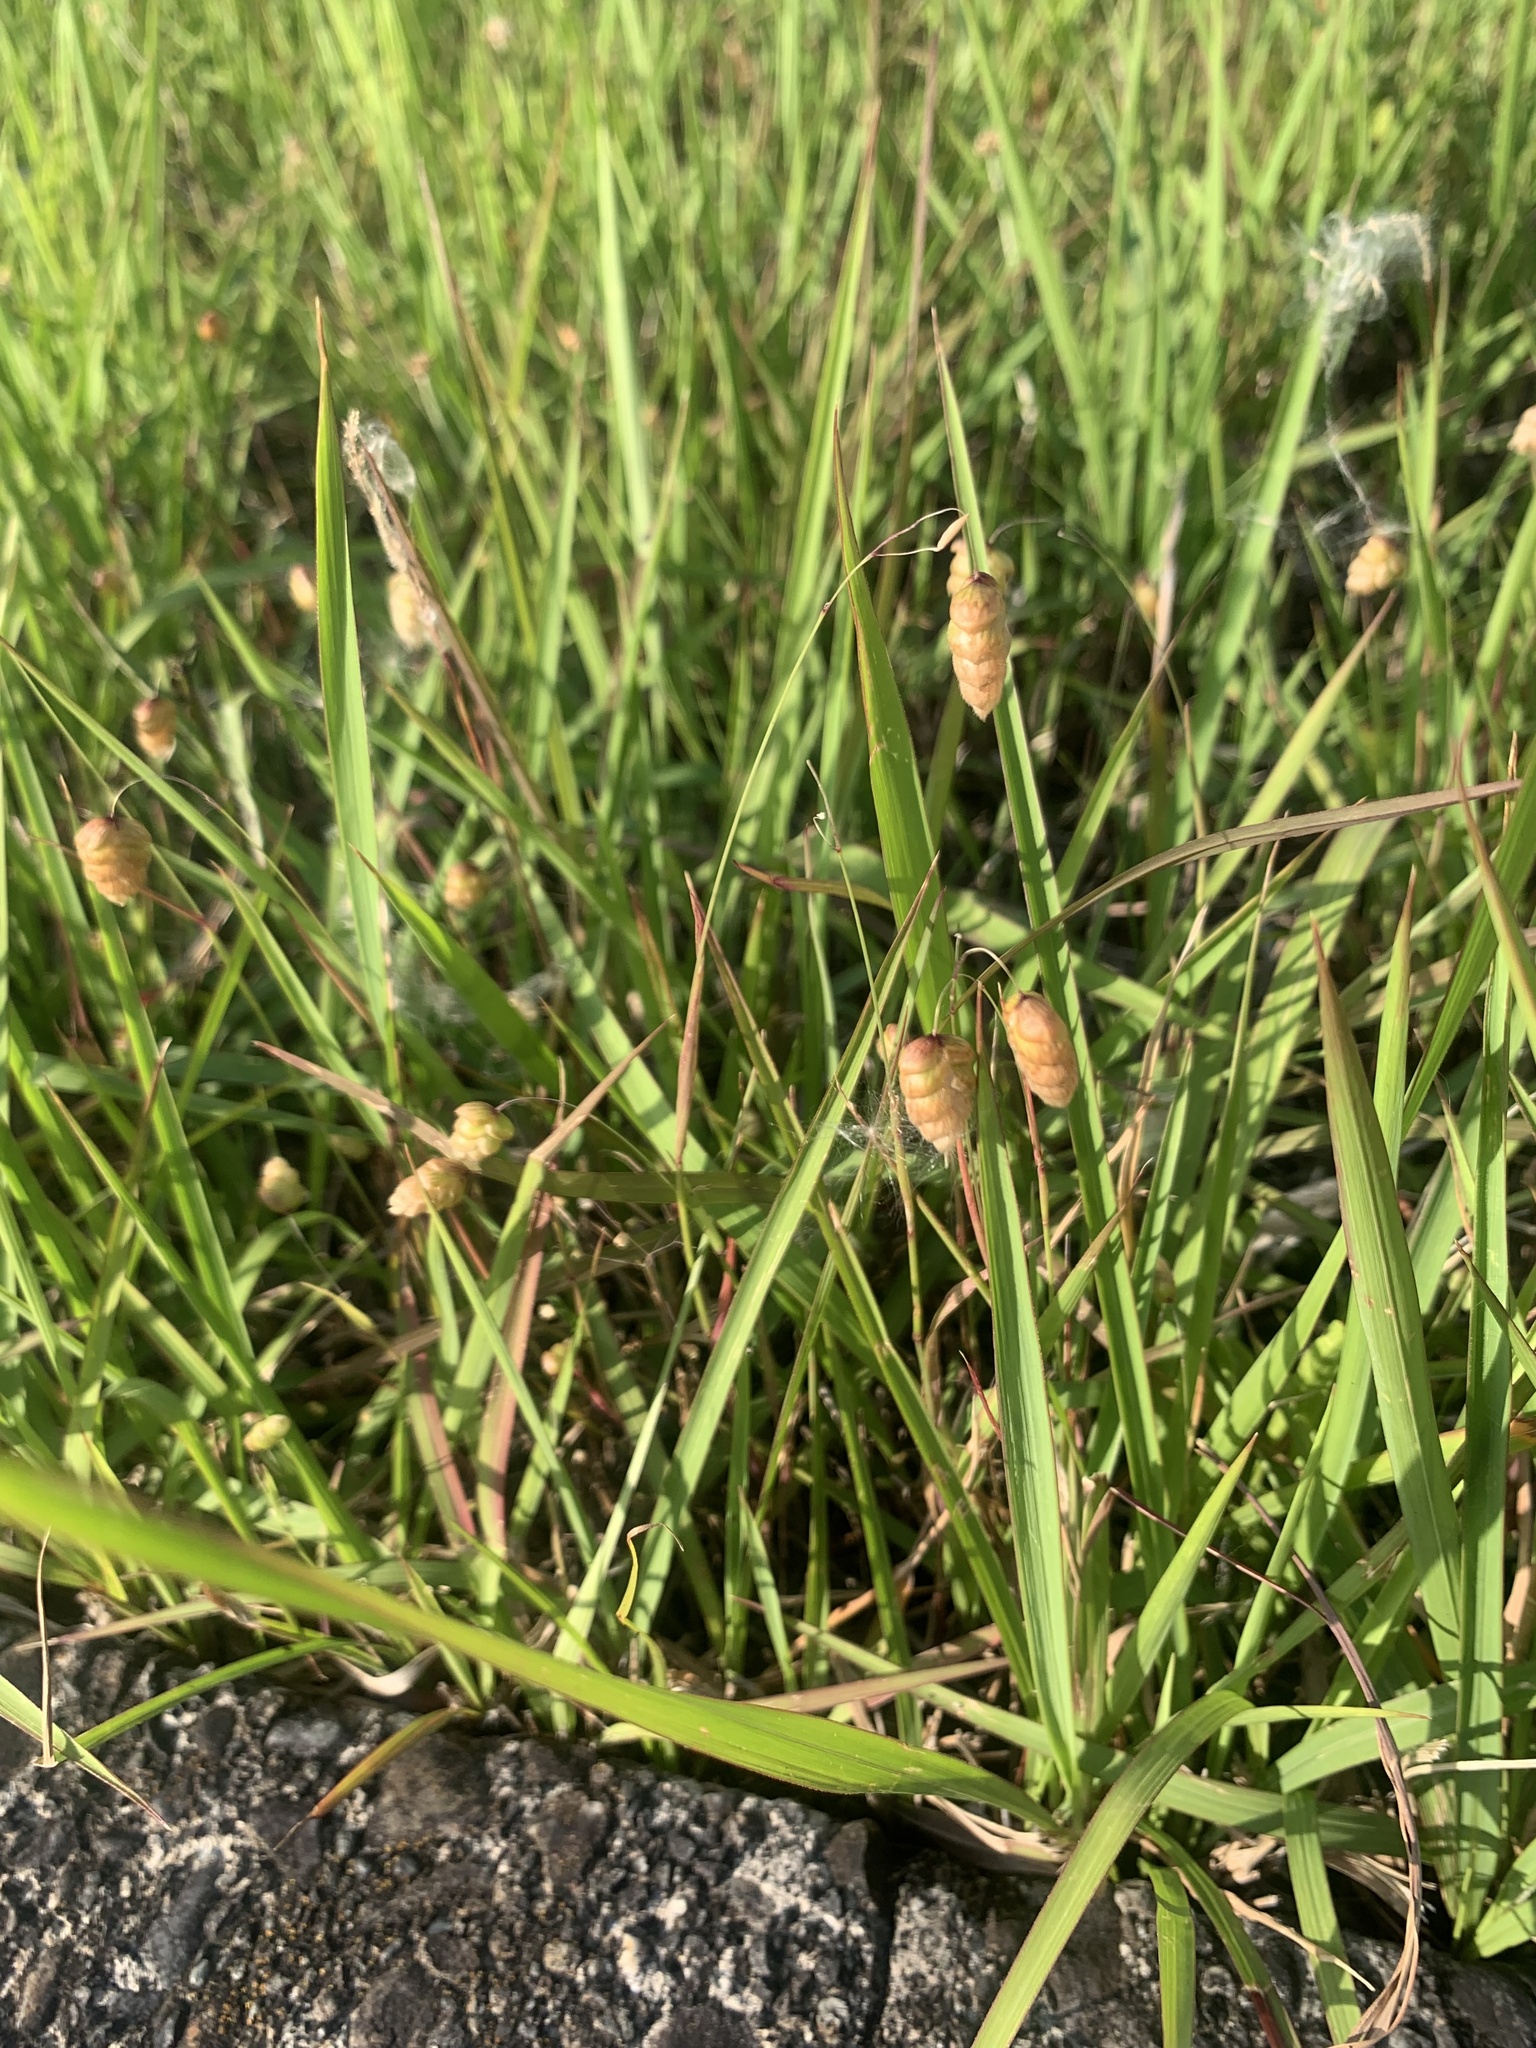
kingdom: Plantae
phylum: Tracheophyta
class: Liliopsida
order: Poales
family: Poaceae
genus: Briza
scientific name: Briza maxima
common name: Big quakinggrass
